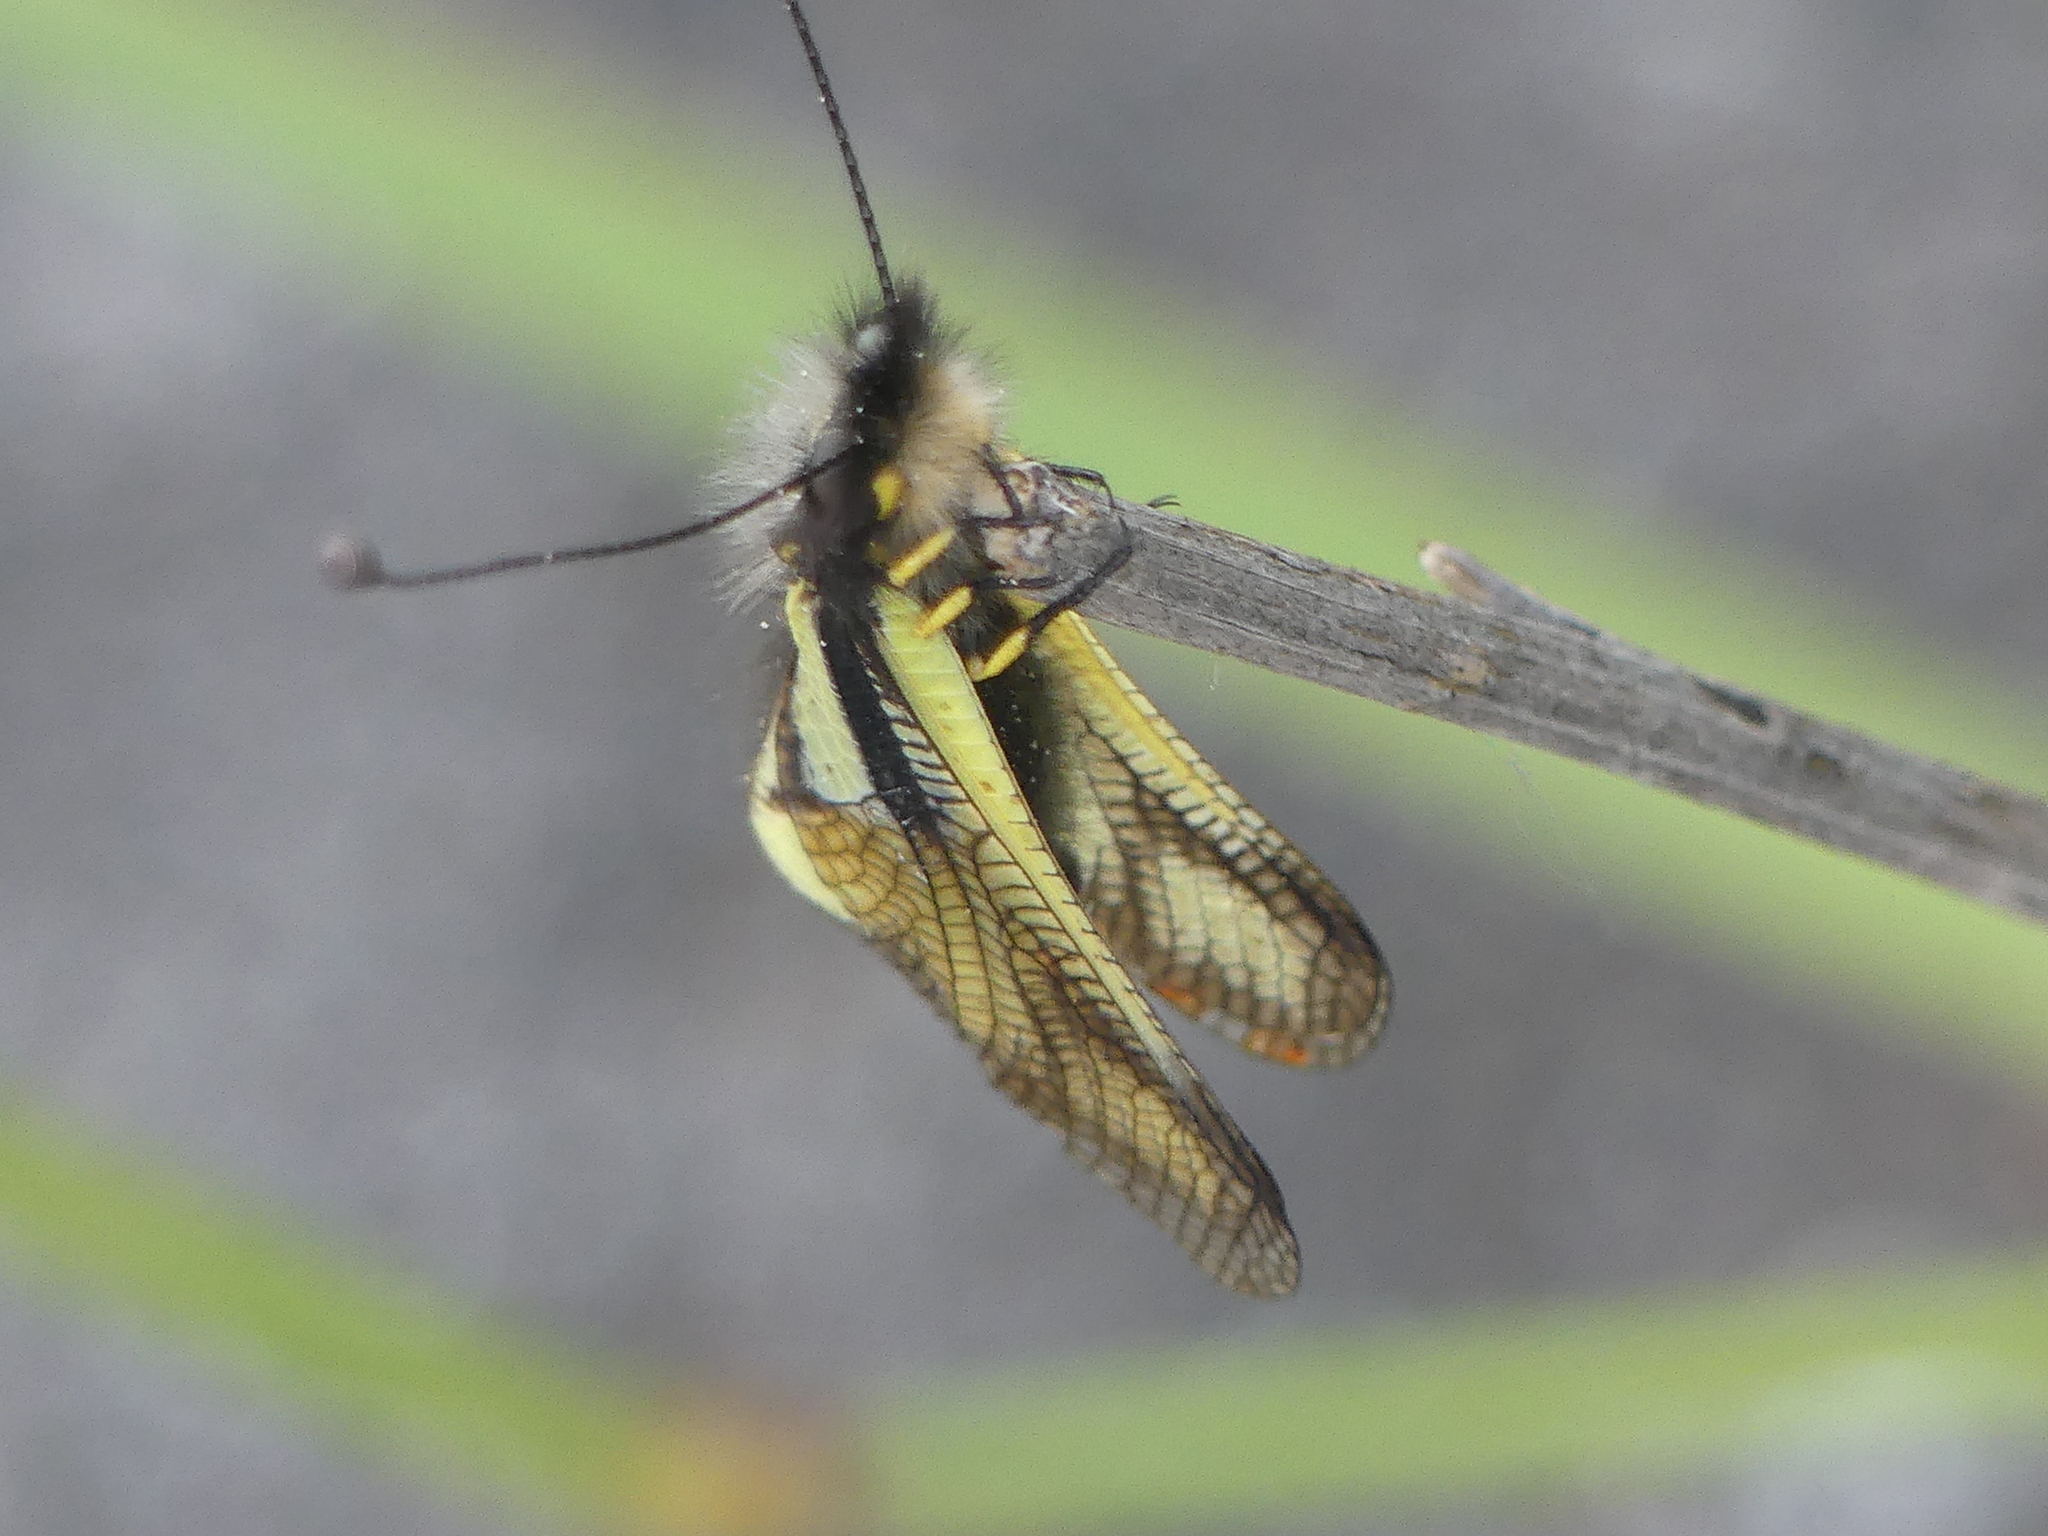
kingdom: Animalia
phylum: Arthropoda
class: Insecta
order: Neuroptera
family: Ascalaphidae
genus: Libelloides
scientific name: Libelloides coccajus
